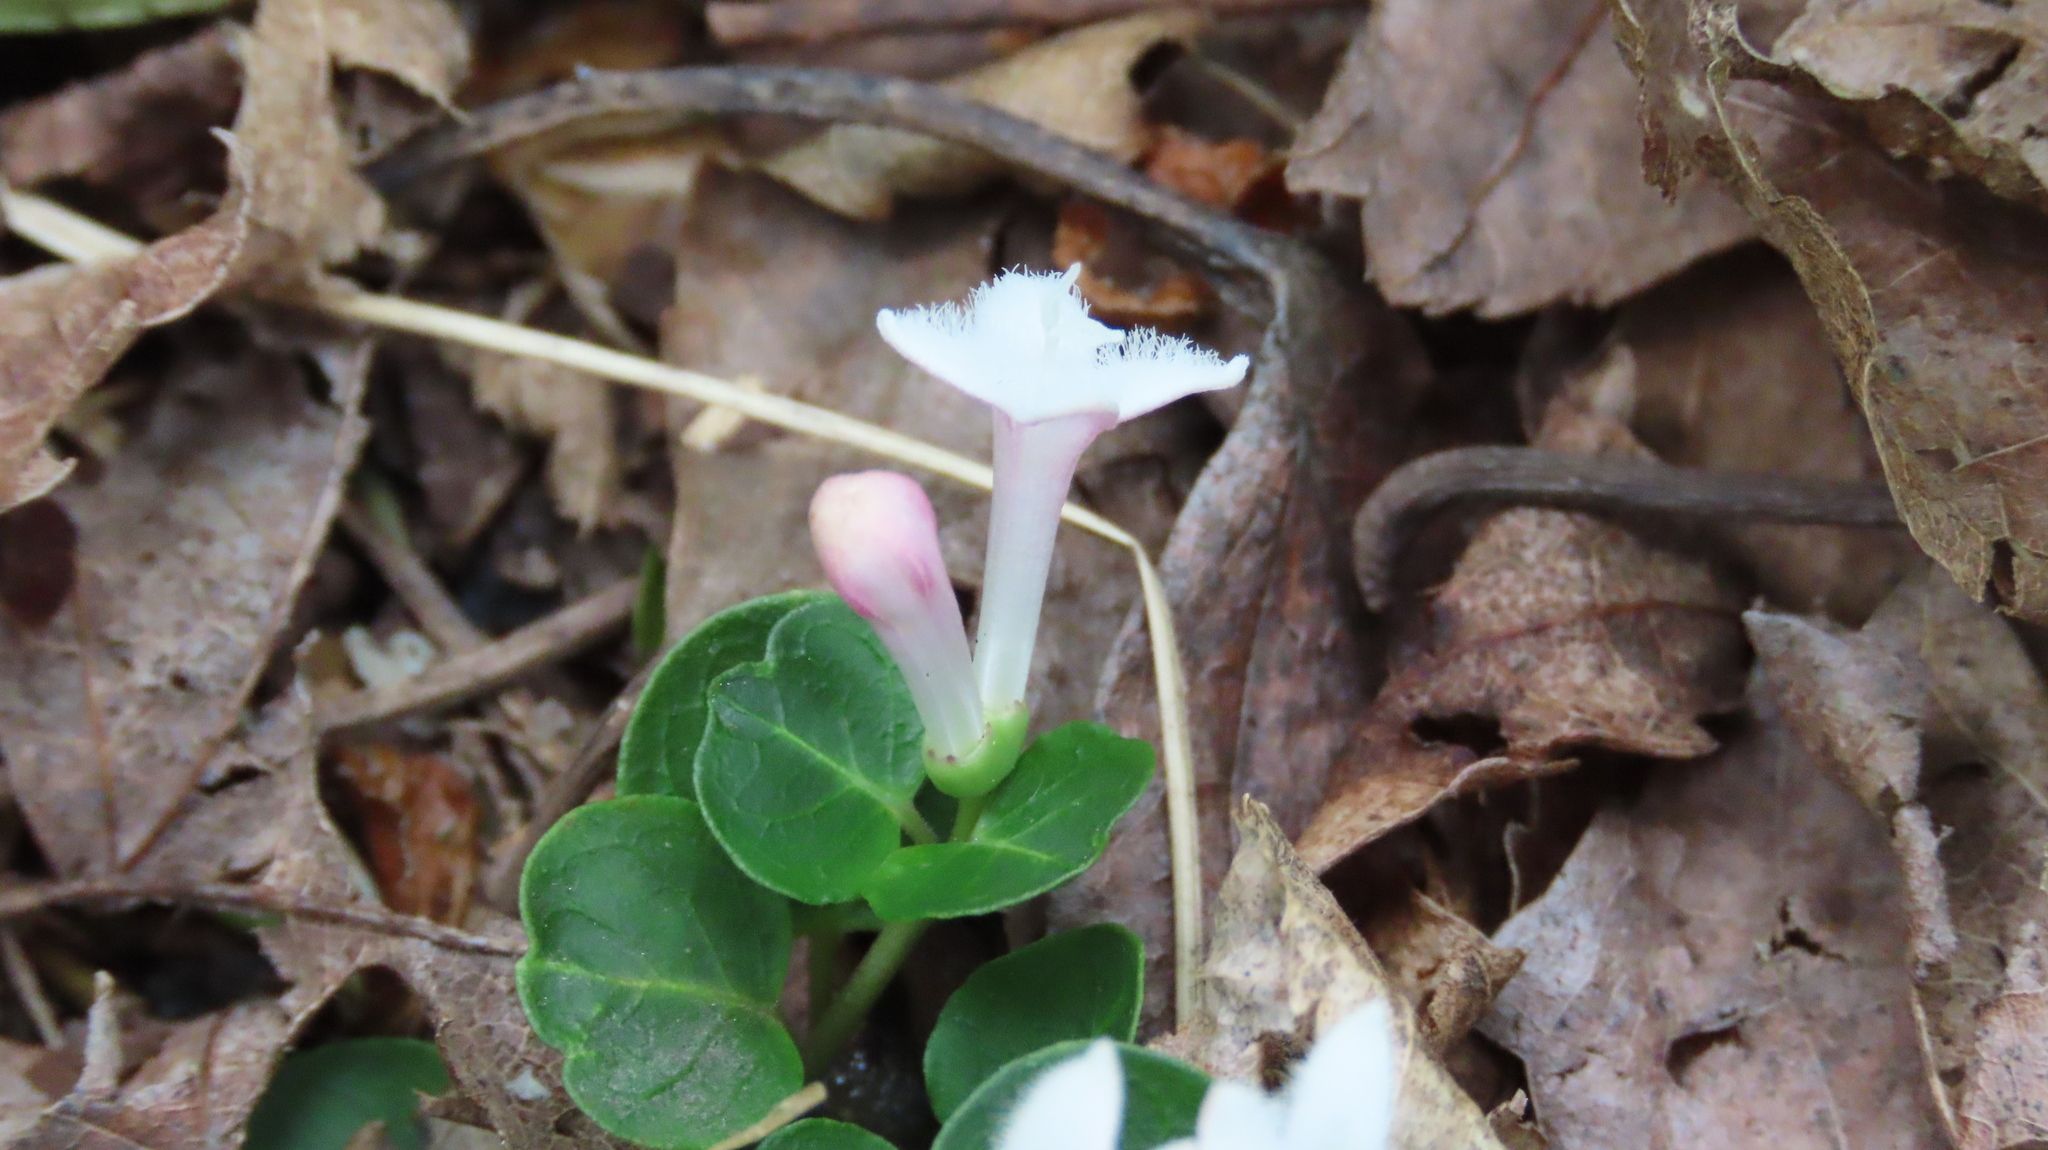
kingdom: Plantae
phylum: Tracheophyta
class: Magnoliopsida
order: Gentianales
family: Rubiaceae
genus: Mitchella
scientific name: Mitchella repens
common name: Partridge-berry
